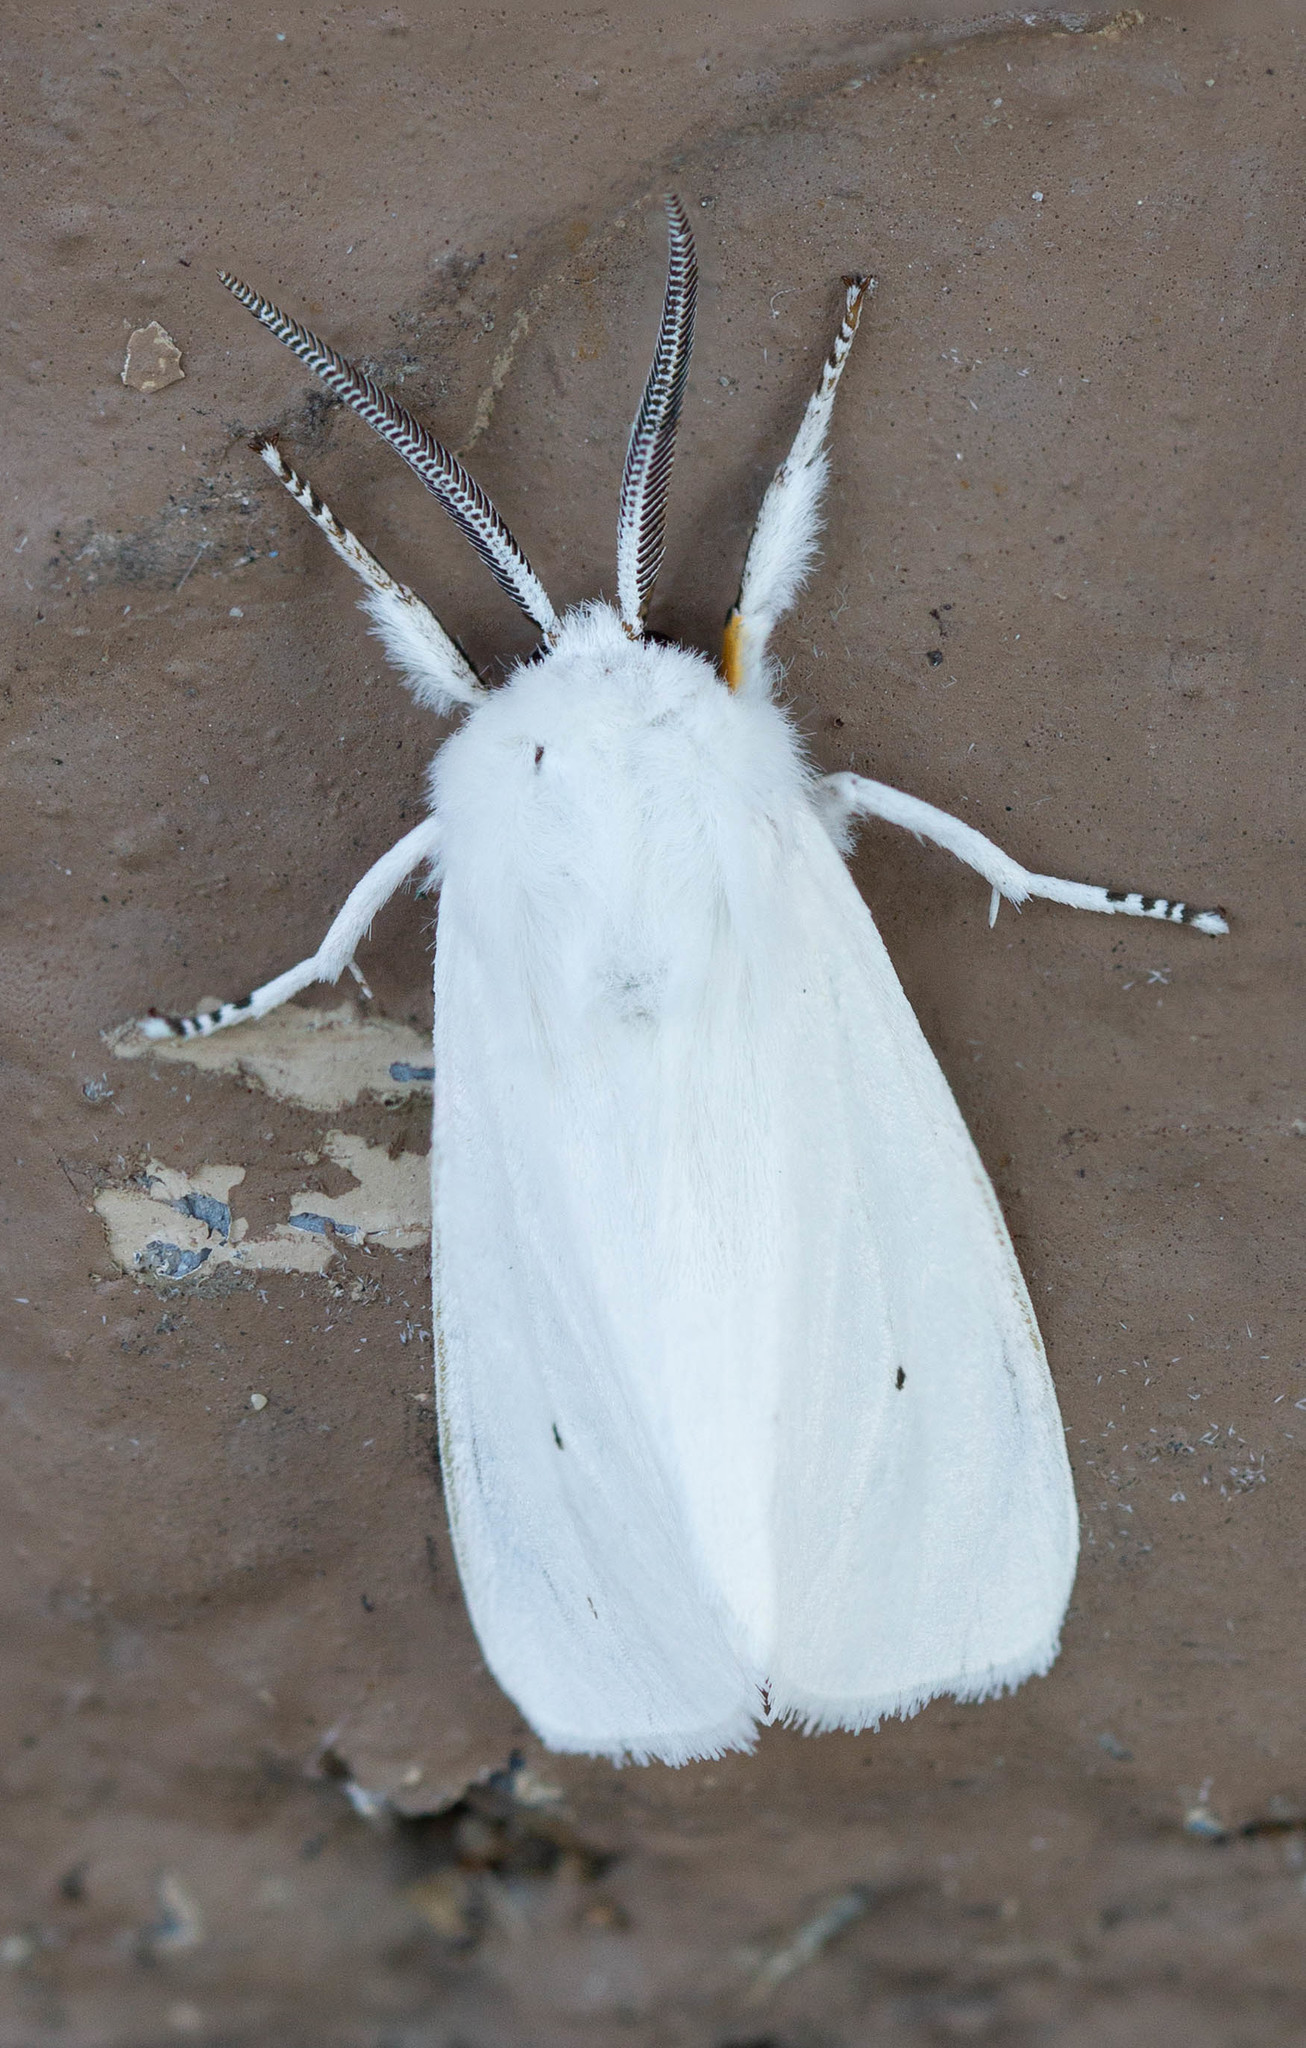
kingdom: Animalia
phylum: Arthropoda
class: Insecta
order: Lepidoptera
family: Erebidae
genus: Spilosoma
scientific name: Spilosoma virginica
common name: Virginia tiger moth
